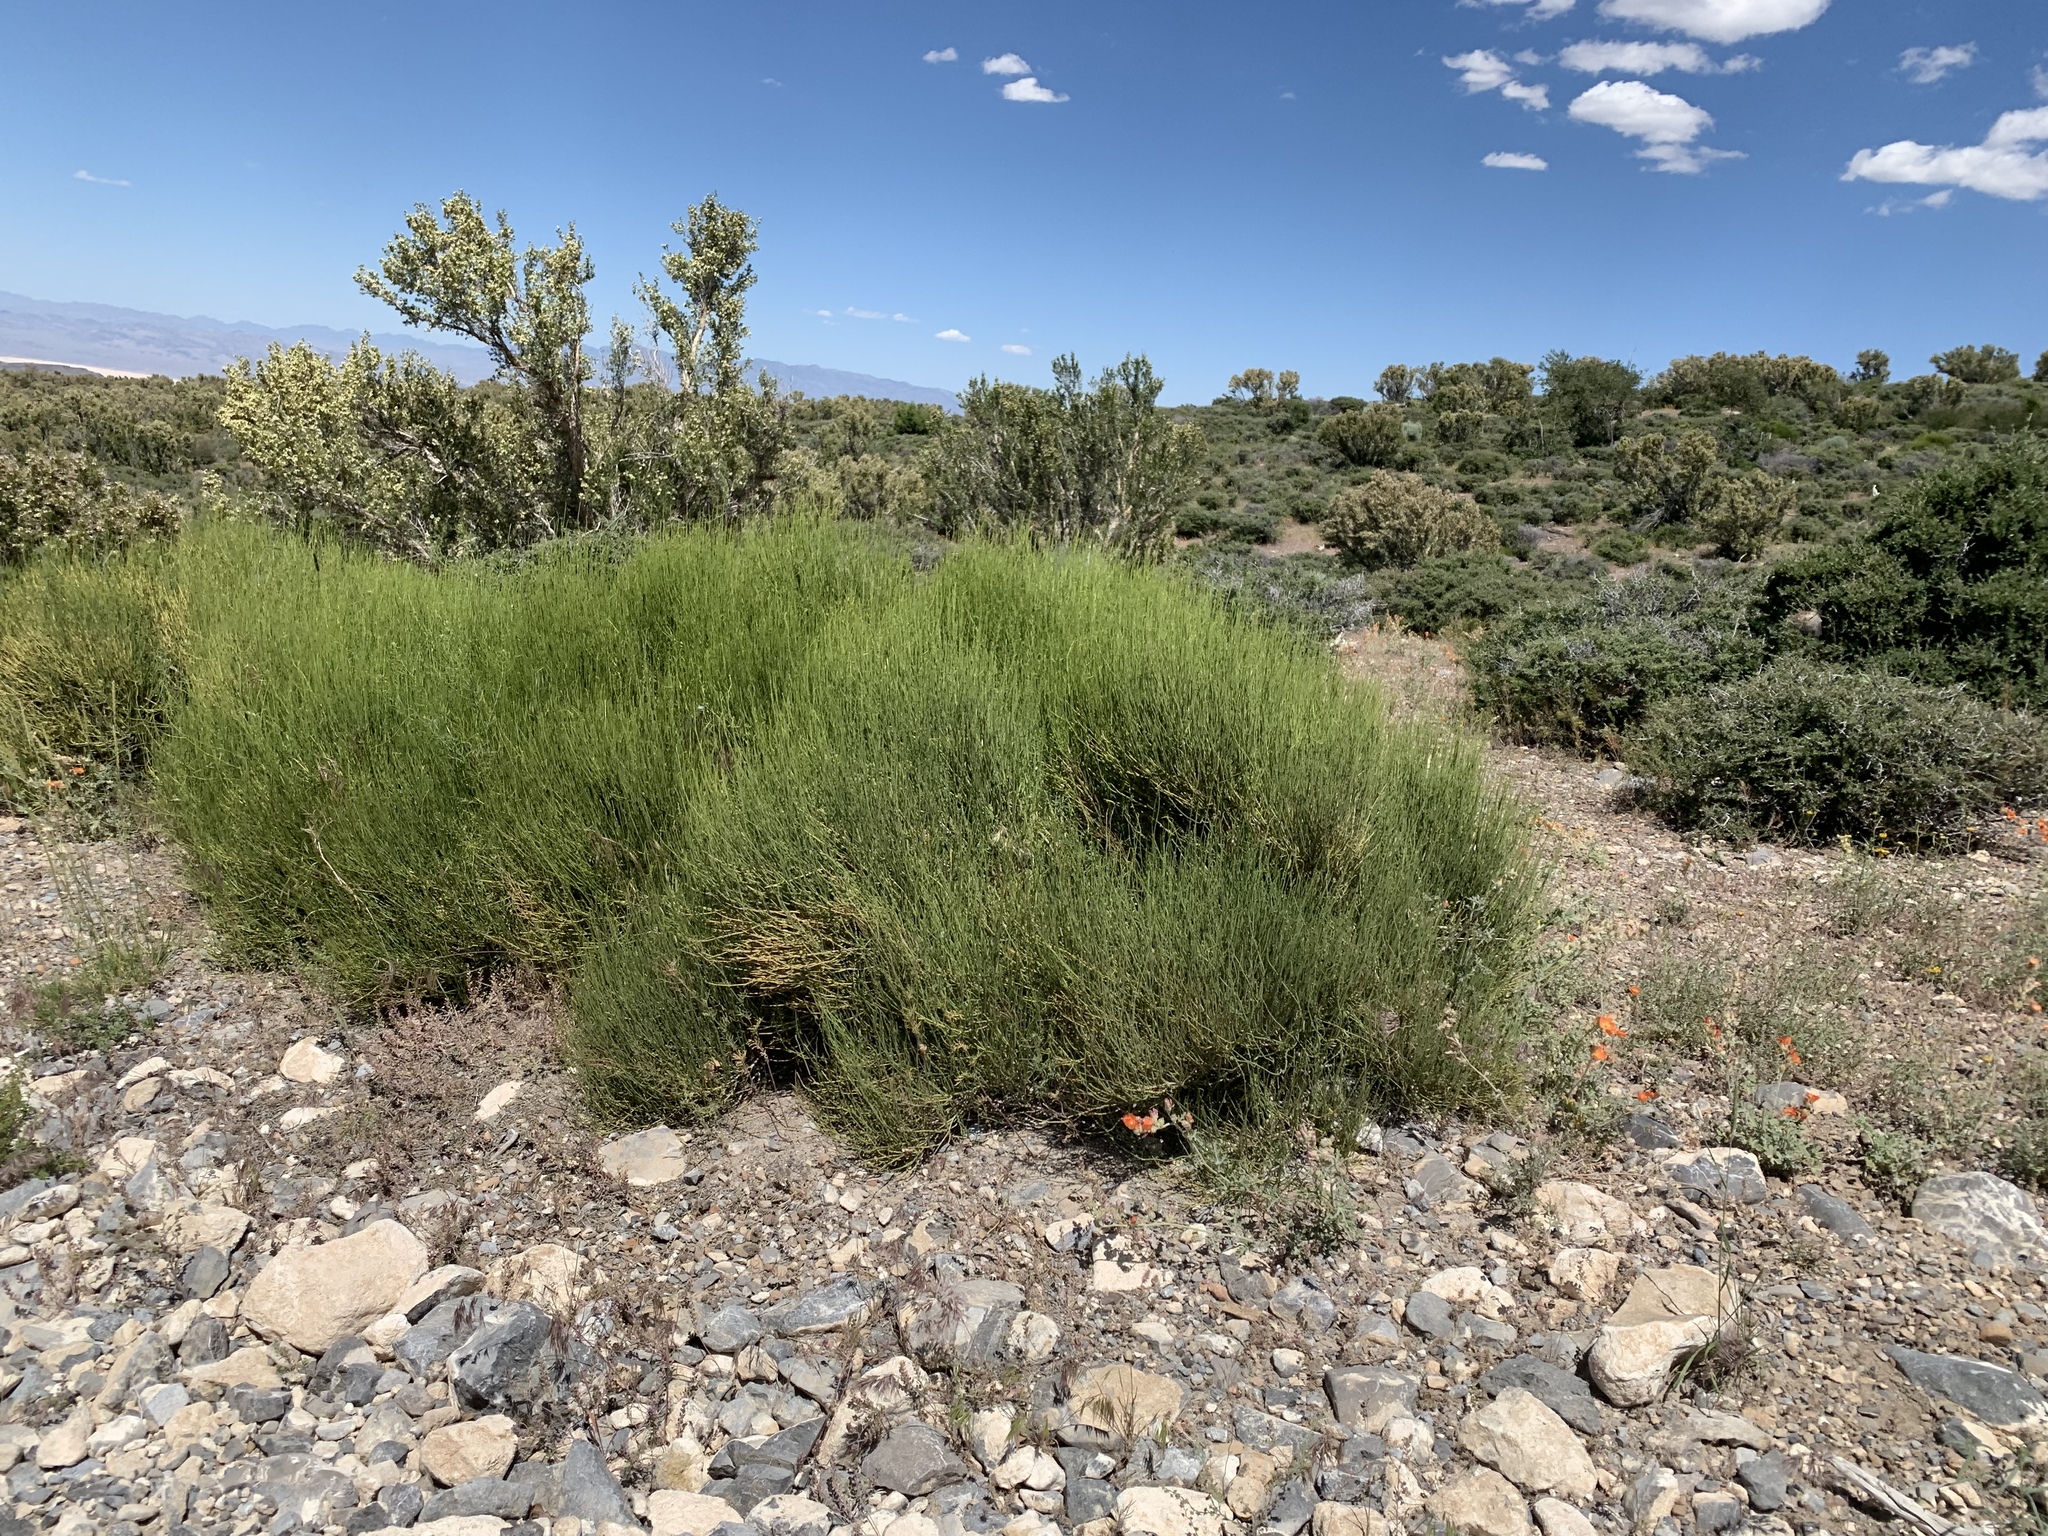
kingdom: Plantae
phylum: Tracheophyta
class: Gnetopsida
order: Ephedrales
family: Ephedraceae
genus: Ephedra
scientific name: Ephedra viridis
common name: Green ephedra
